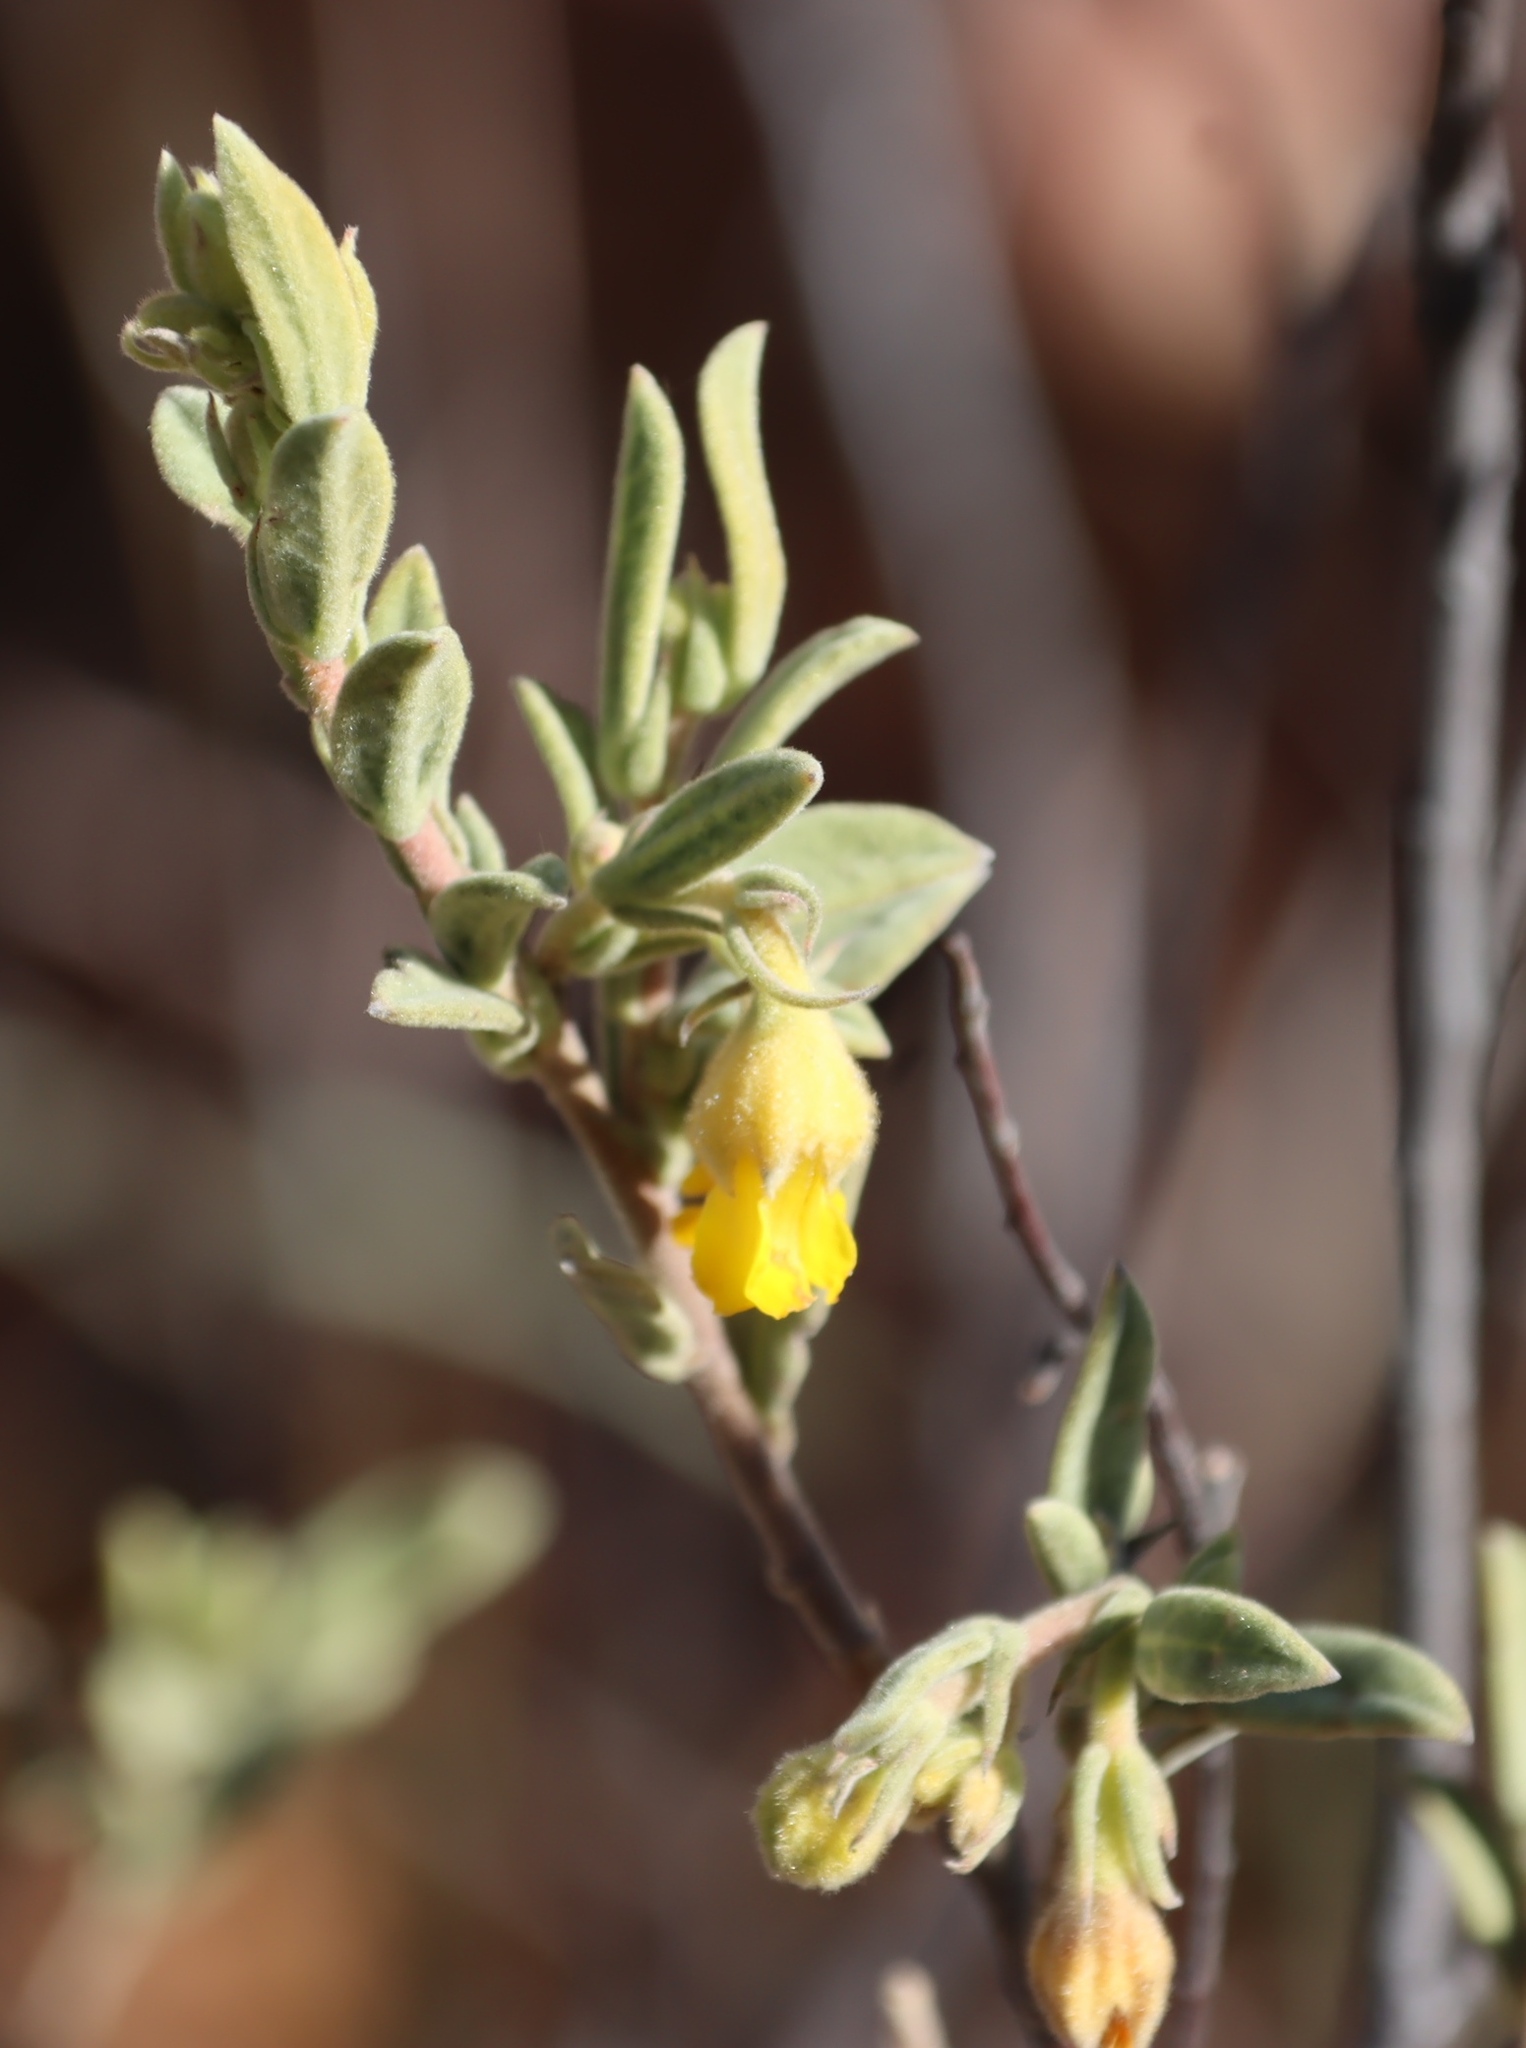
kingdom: Plantae
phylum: Tracheophyta
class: Magnoliopsida
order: Malvales
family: Malvaceae
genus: Hermannia
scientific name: Hermannia velutina
